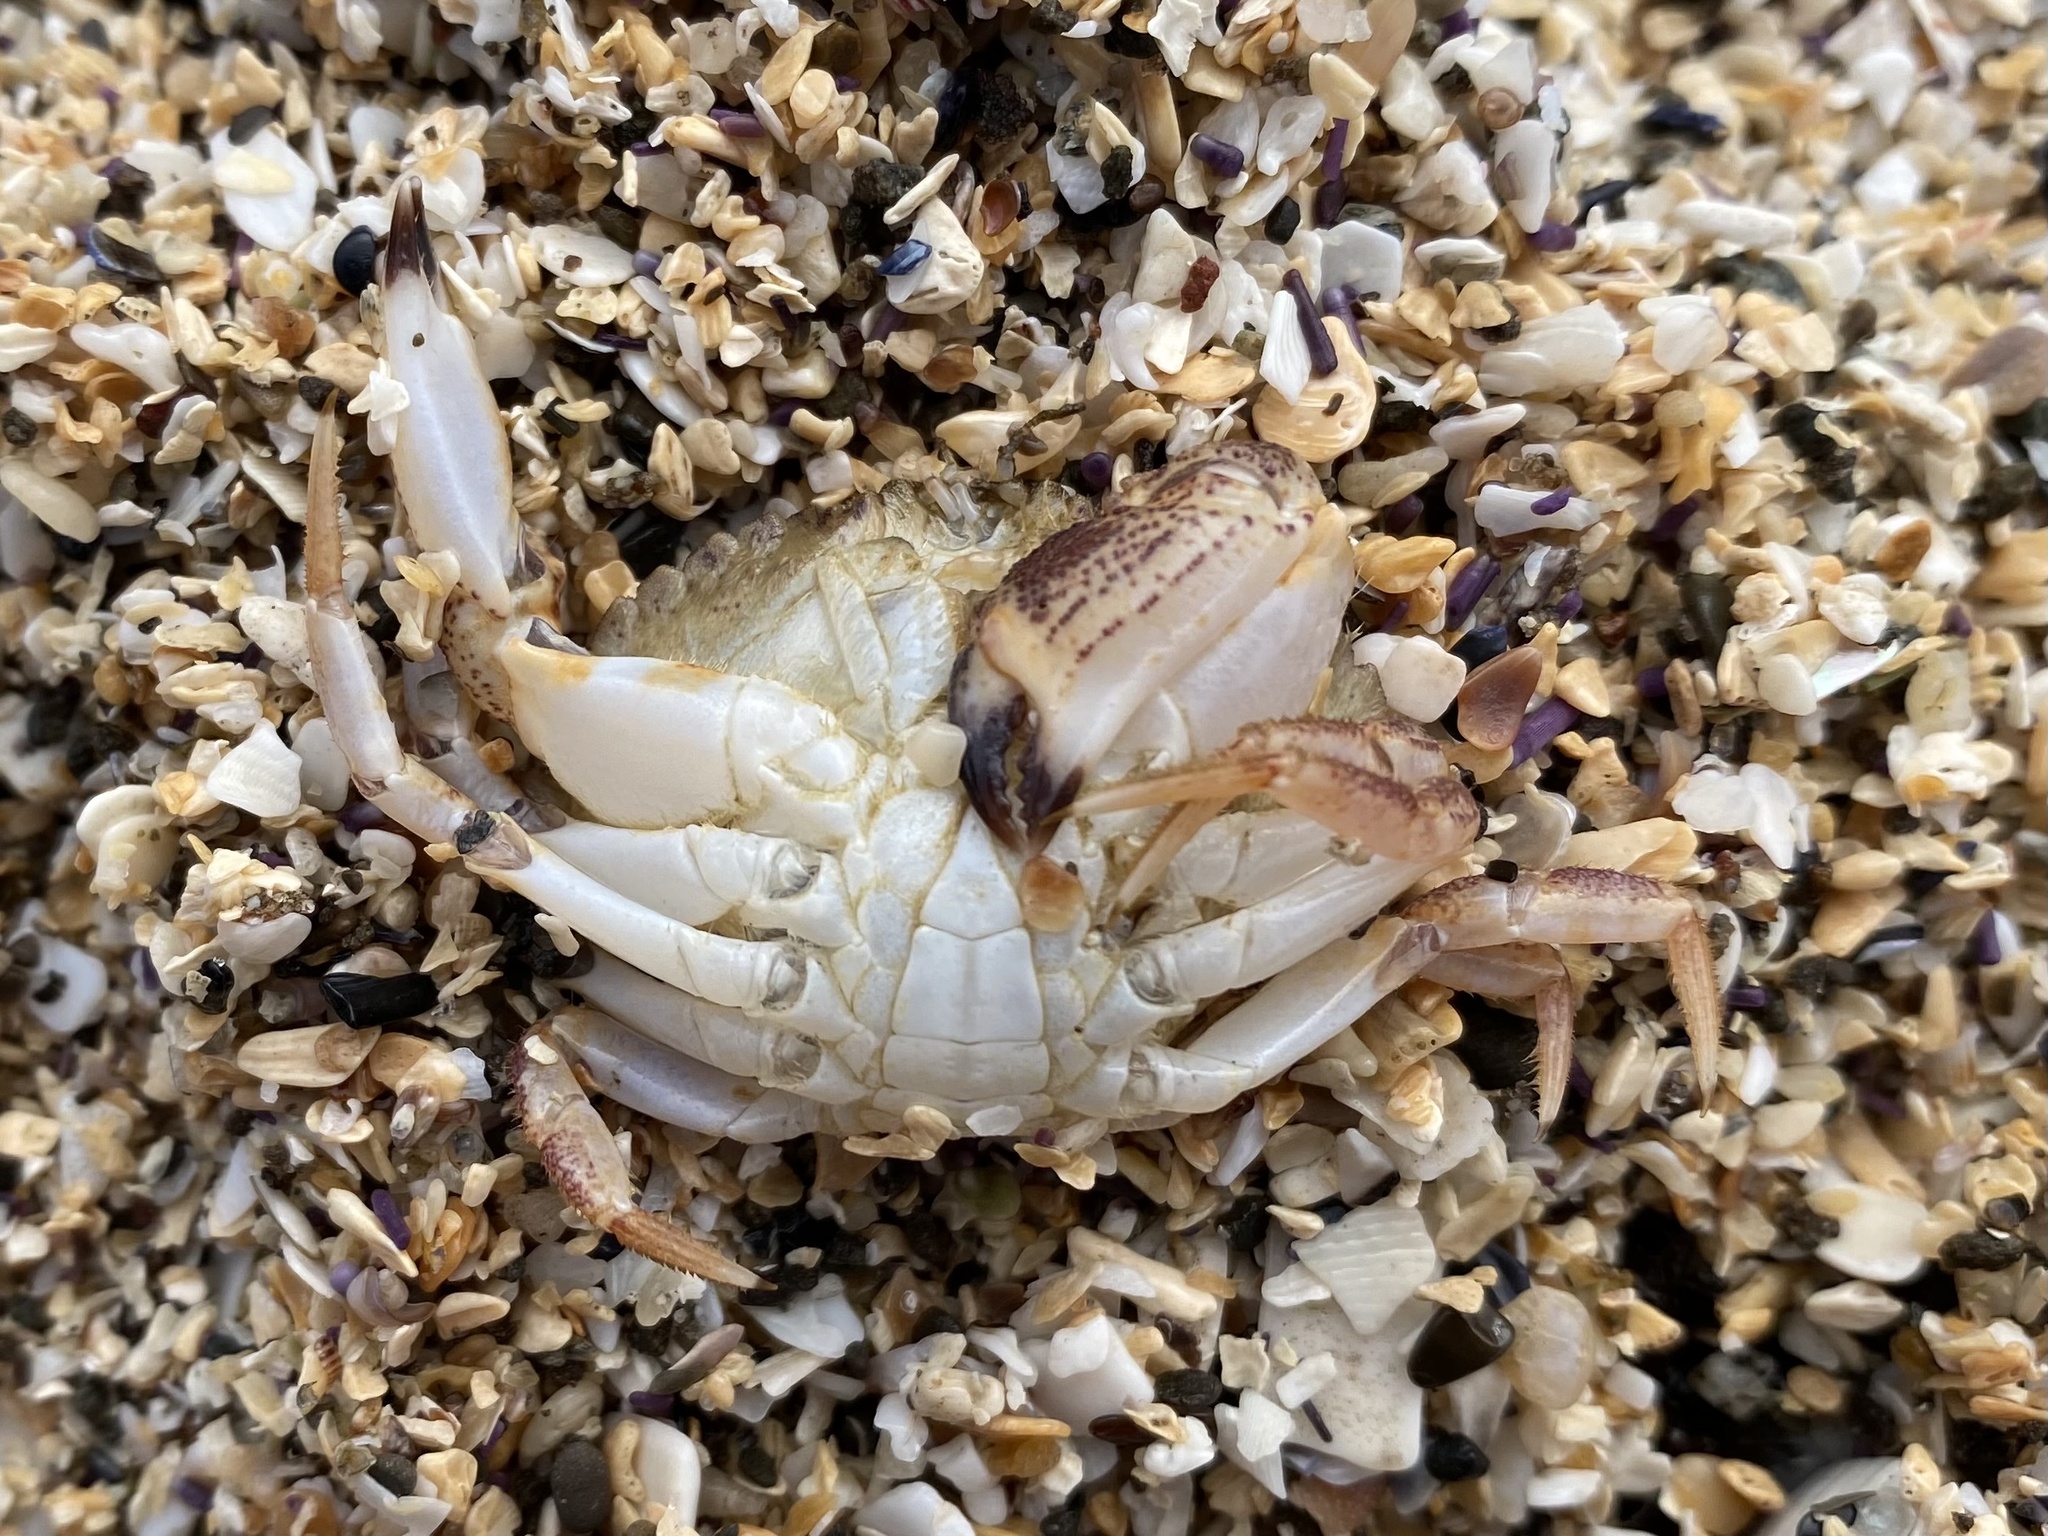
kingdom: Animalia
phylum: Arthropoda
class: Malacostraca
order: Decapoda
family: Cancridae
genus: Metacarcinus
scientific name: Metacarcinus anthonyi
